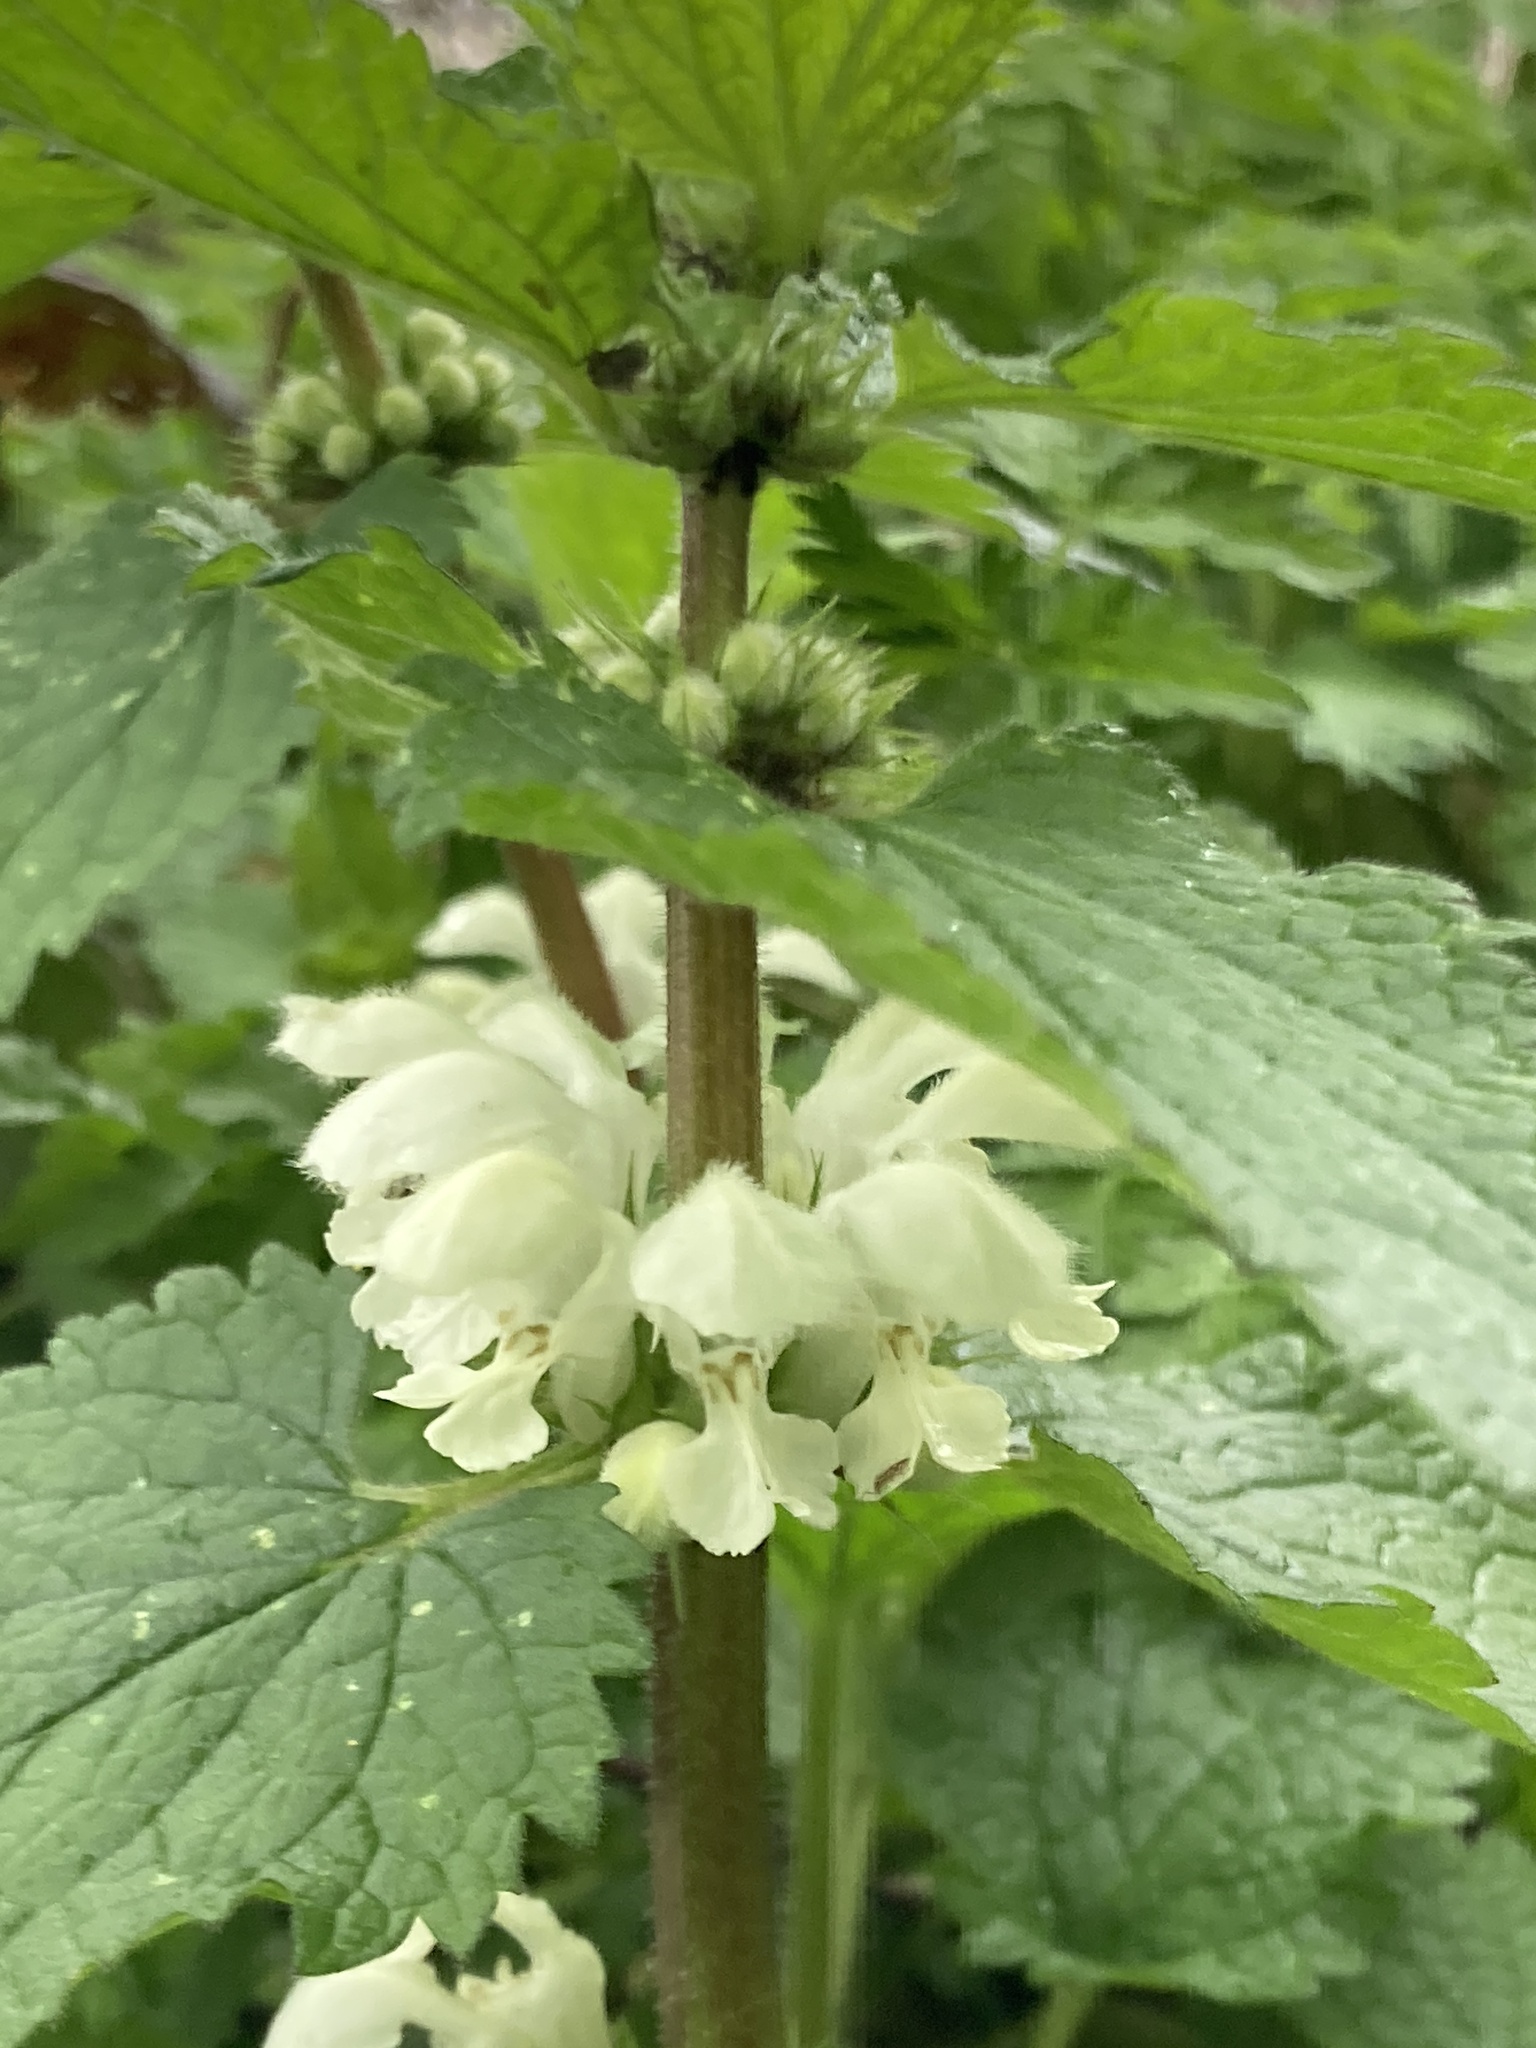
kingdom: Plantae
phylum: Tracheophyta
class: Magnoliopsida
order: Lamiales
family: Lamiaceae
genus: Lamium
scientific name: Lamium album
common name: White dead-nettle
